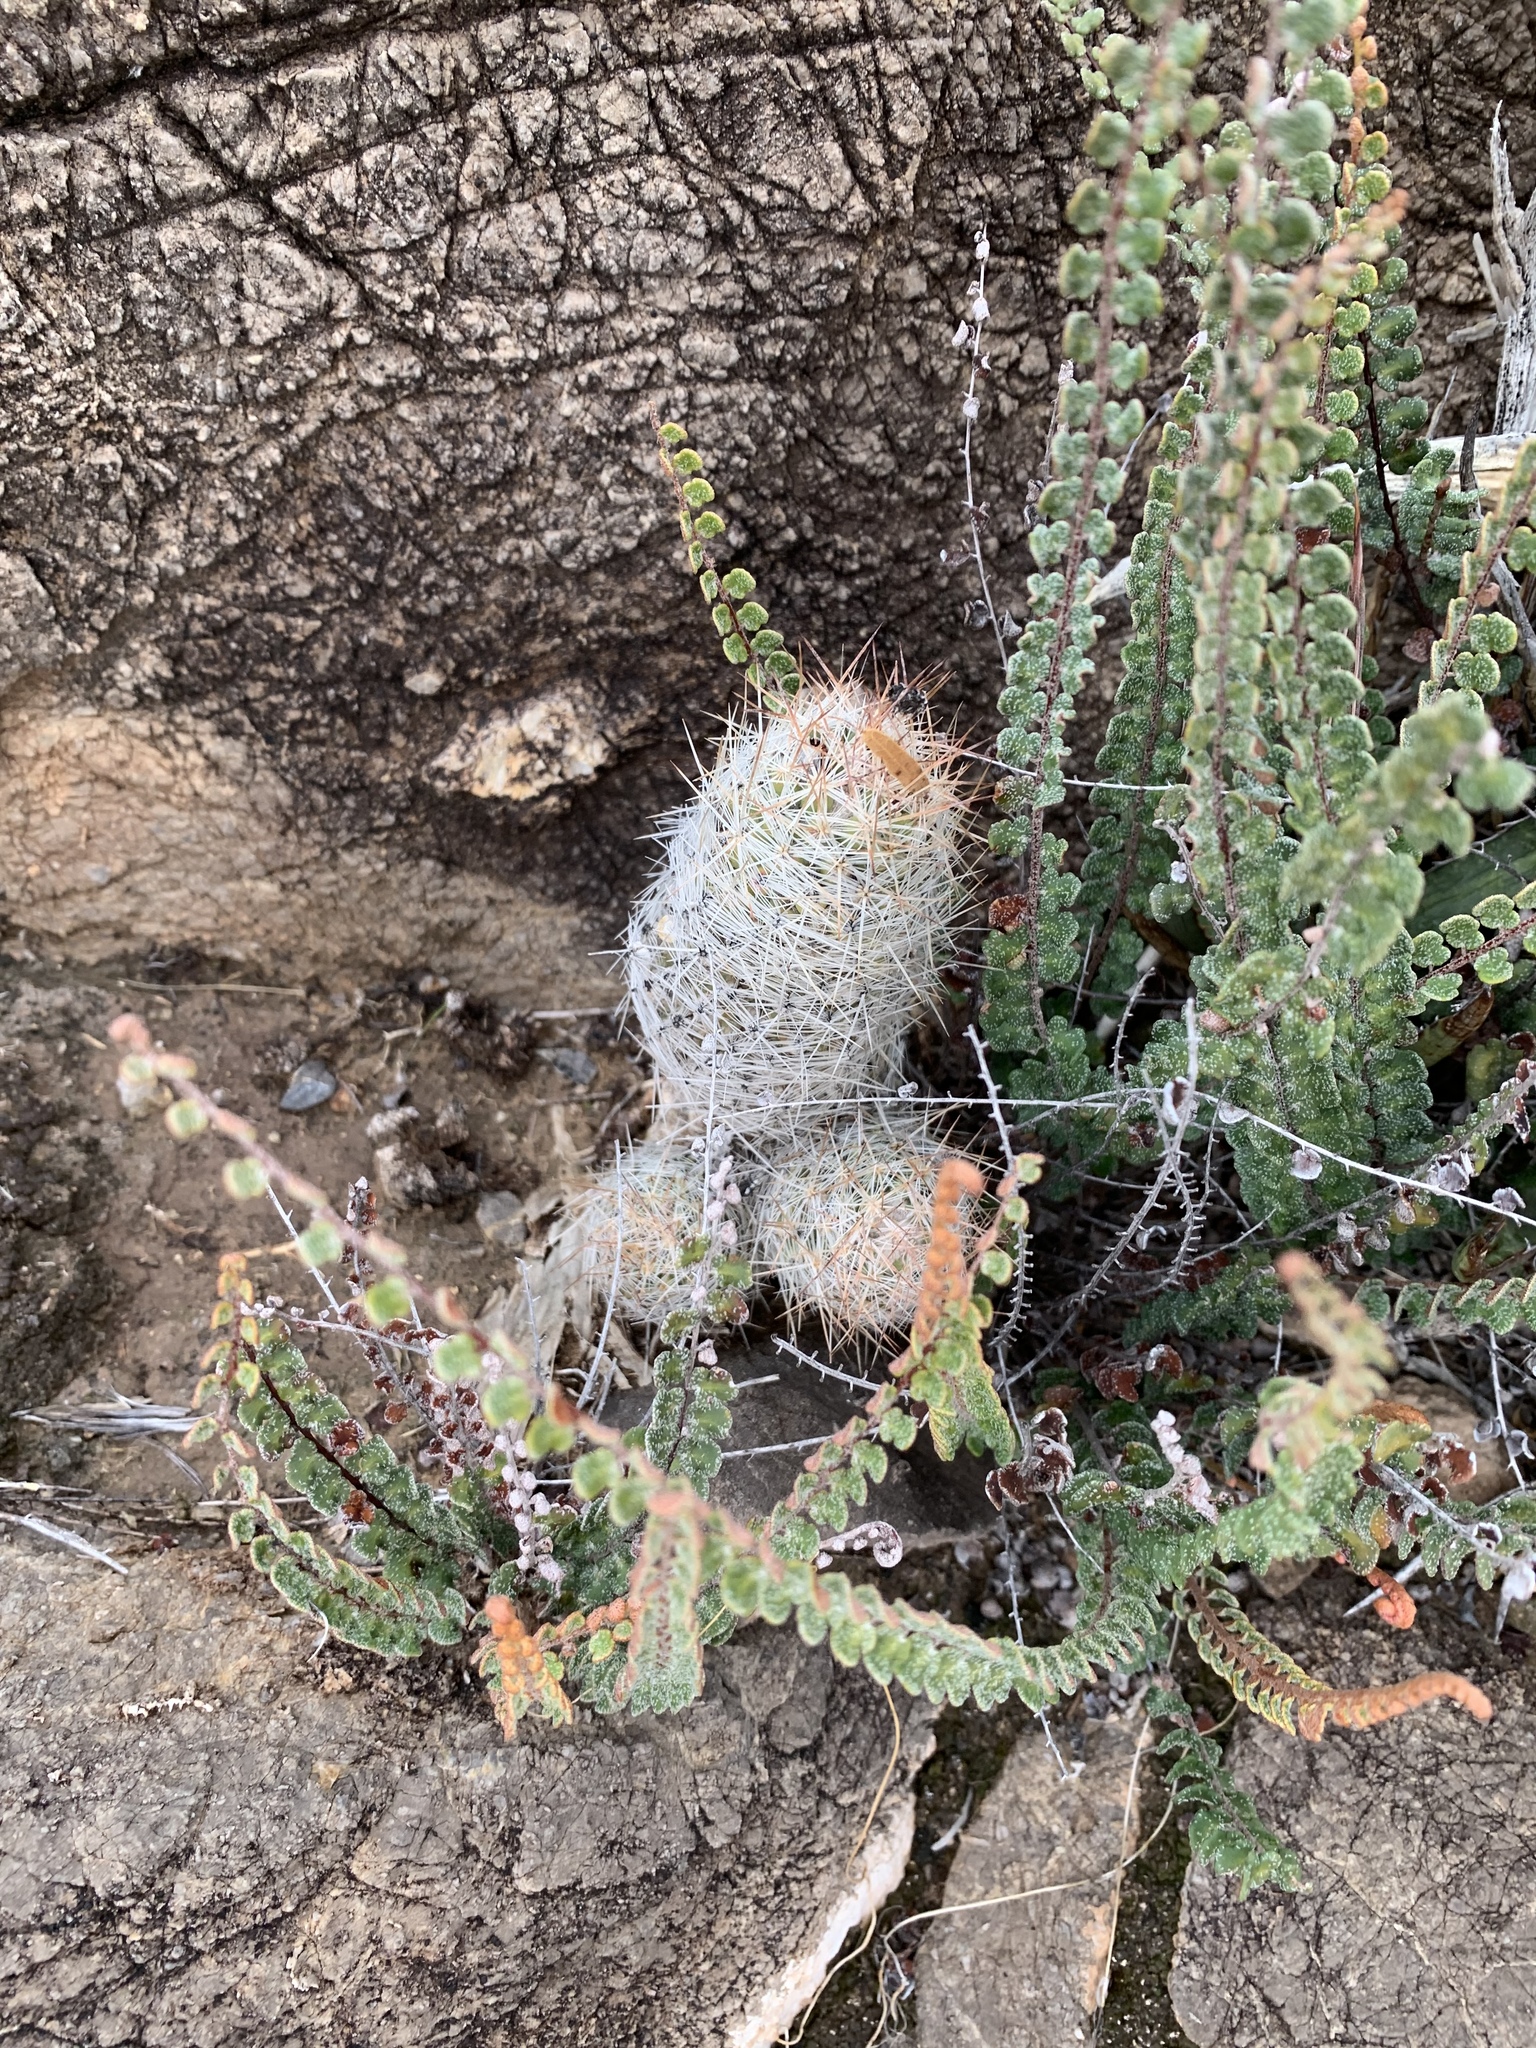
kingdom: Plantae
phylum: Tracheophyta
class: Magnoliopsida
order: Caryophyllales
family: Cactaceae
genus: Pelecyphora
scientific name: Pelecyphora tuberculosa
